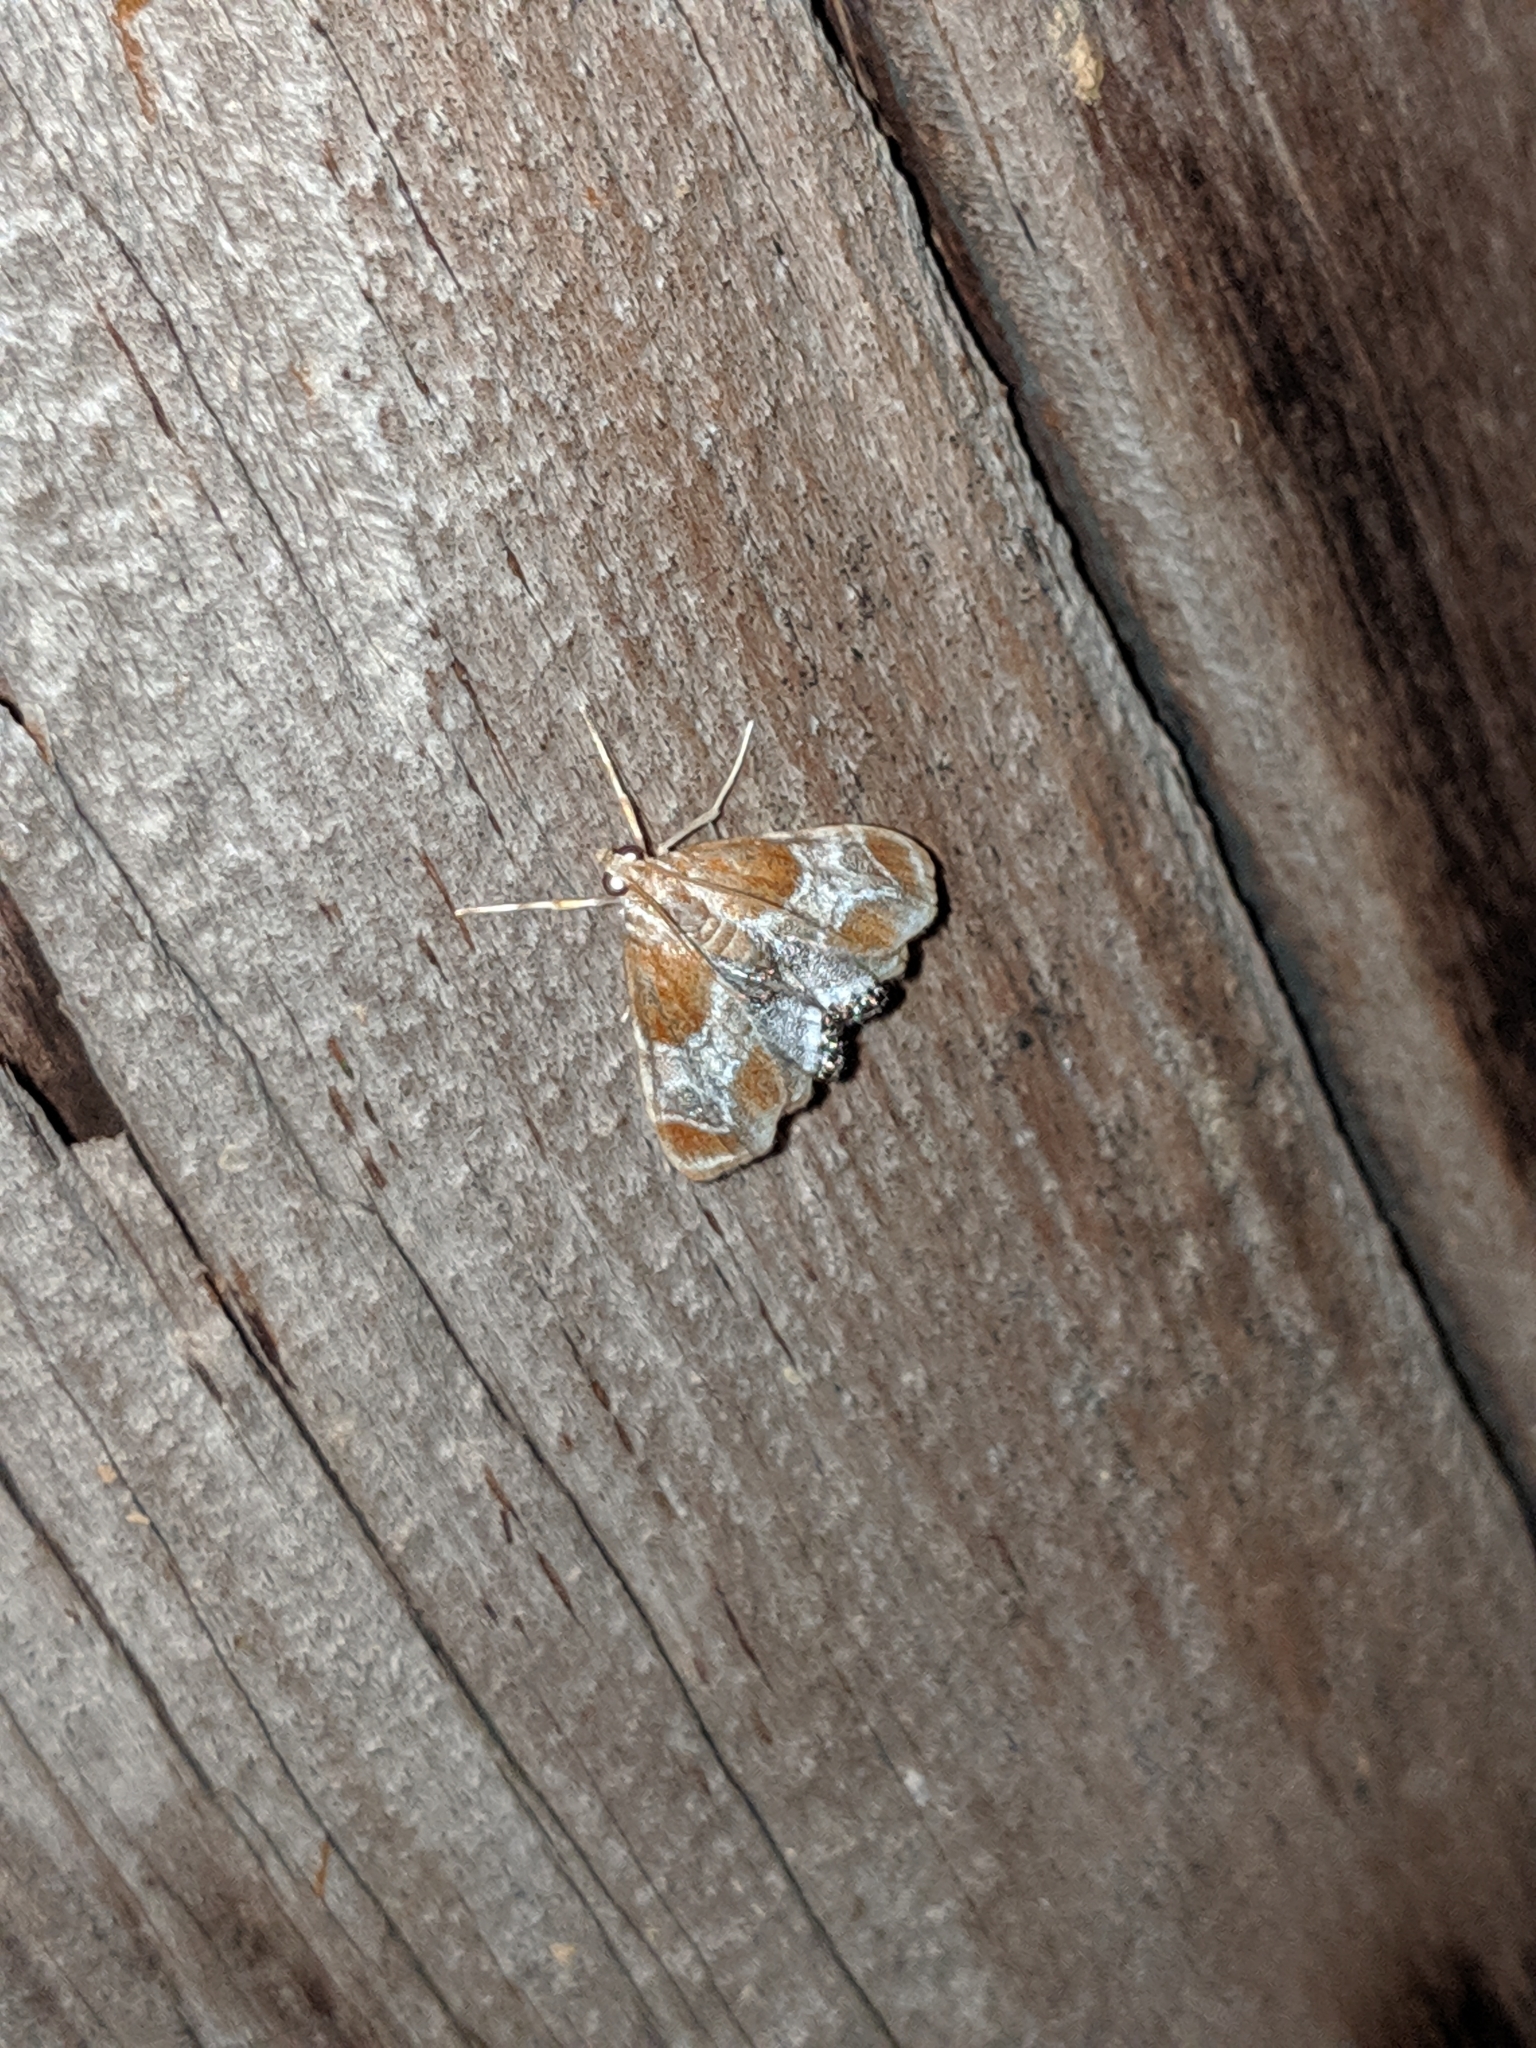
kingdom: Animalia
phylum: Arthropoda
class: Insecta
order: Lepidoptera
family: Crambidae
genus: Chalcoela
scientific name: Chalcoela pegasalis
